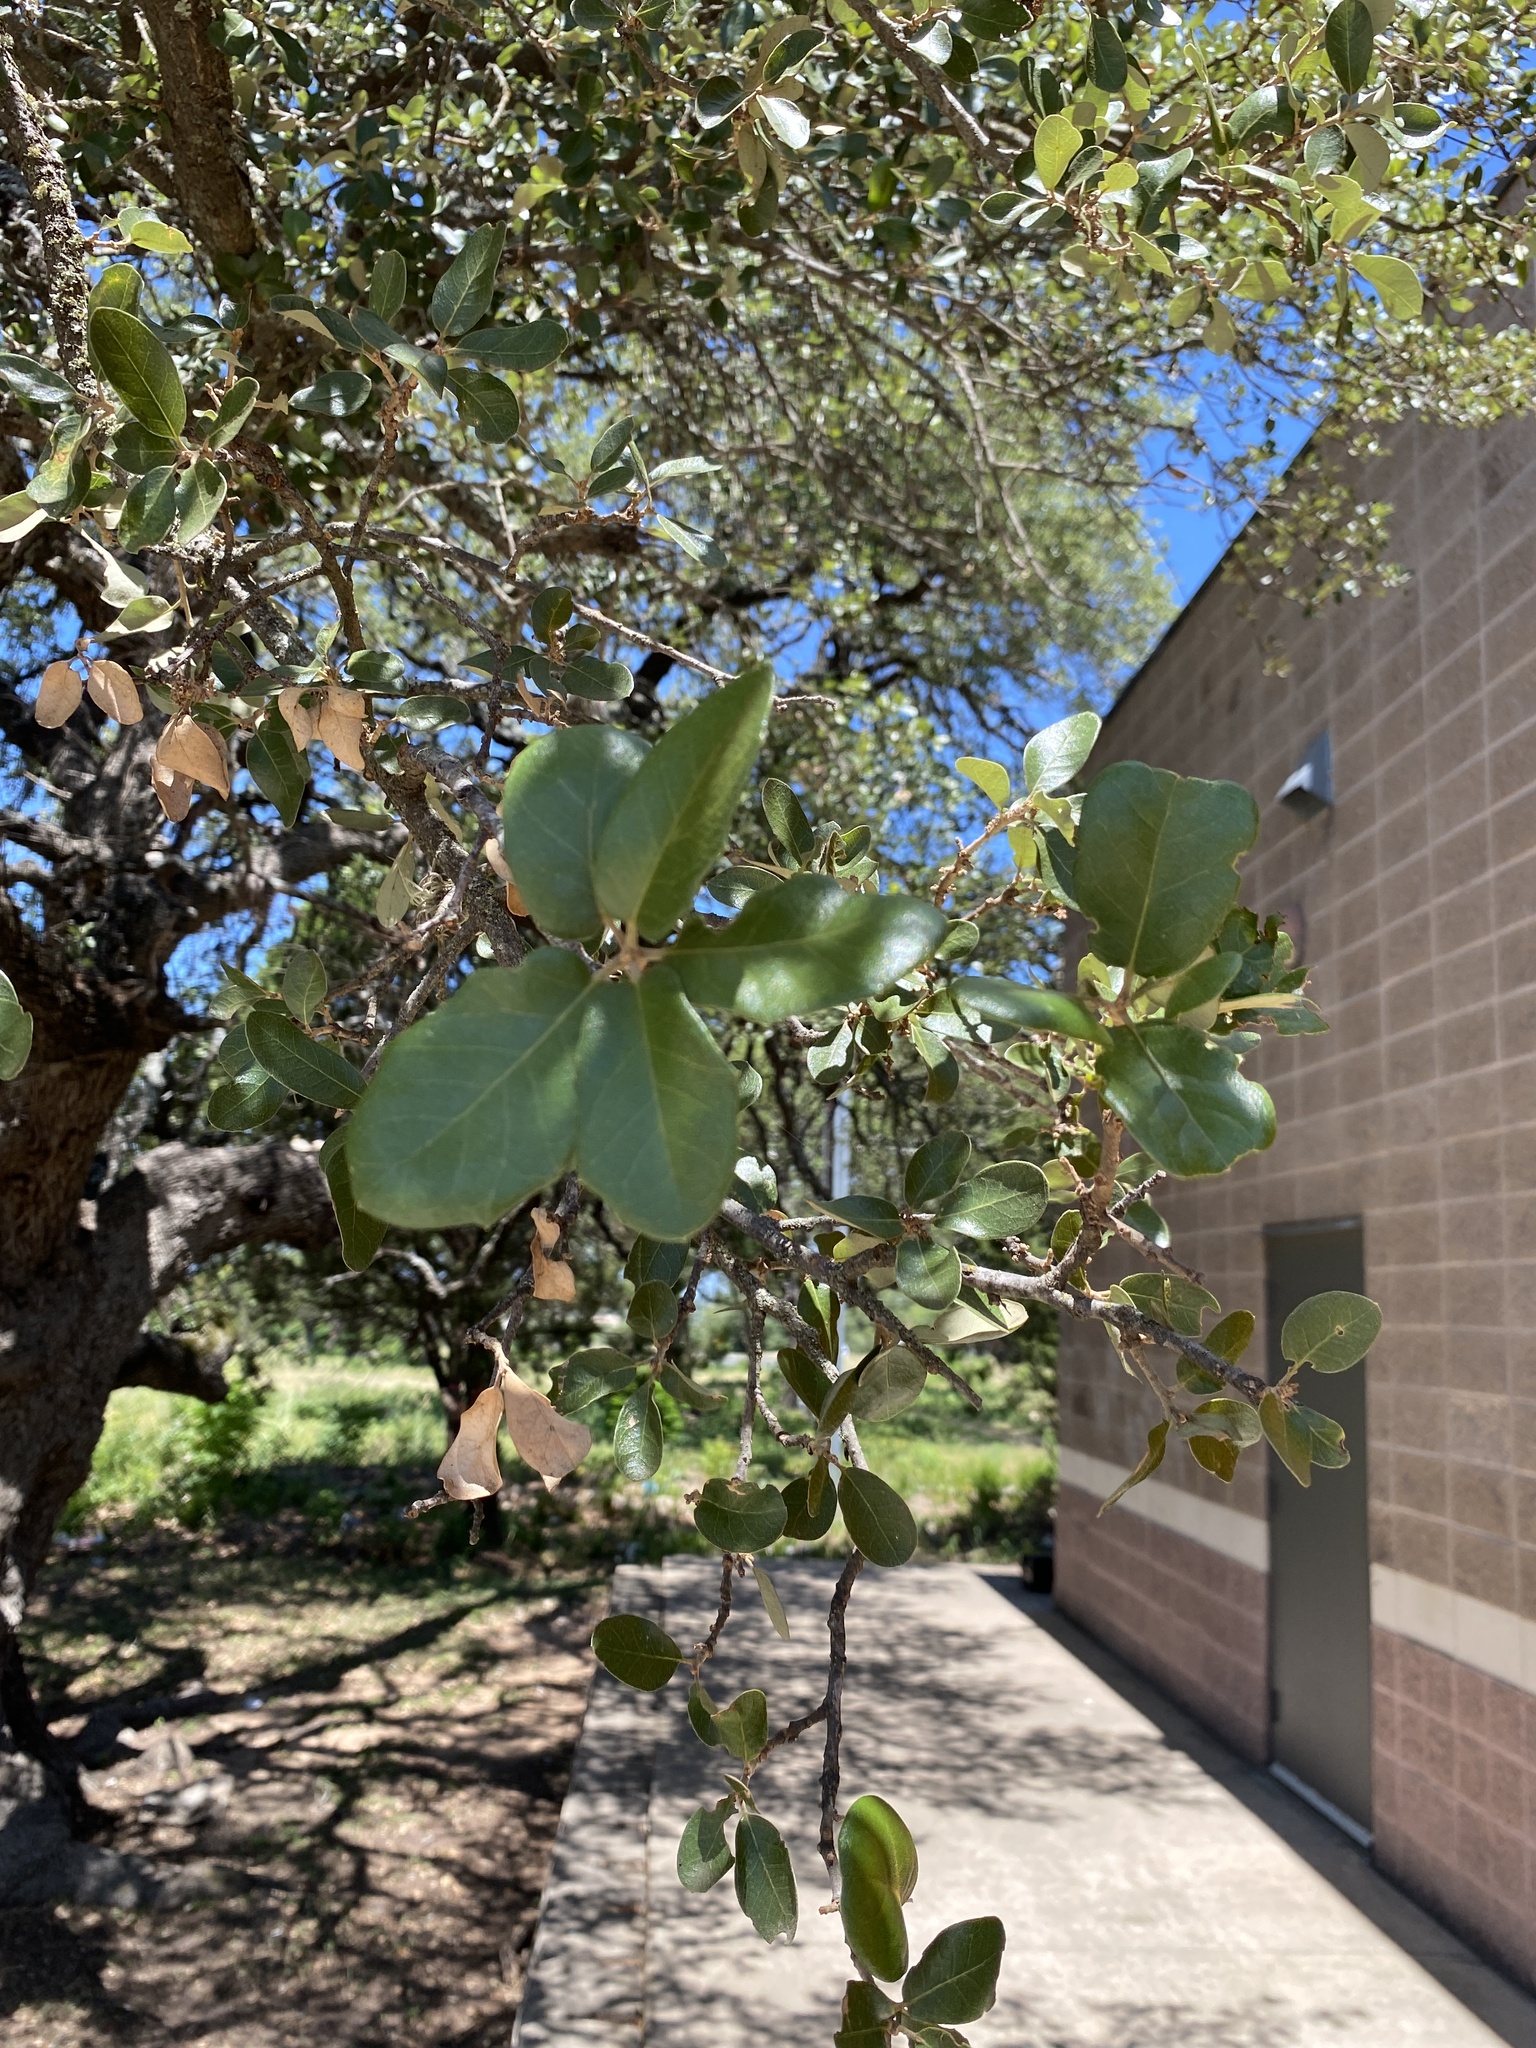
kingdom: Plantae
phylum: Tracheophyta
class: Magnoliopsida
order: Fagales
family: Fagaceae
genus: Quercus
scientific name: Quercus fusiformis
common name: Texas live oak
